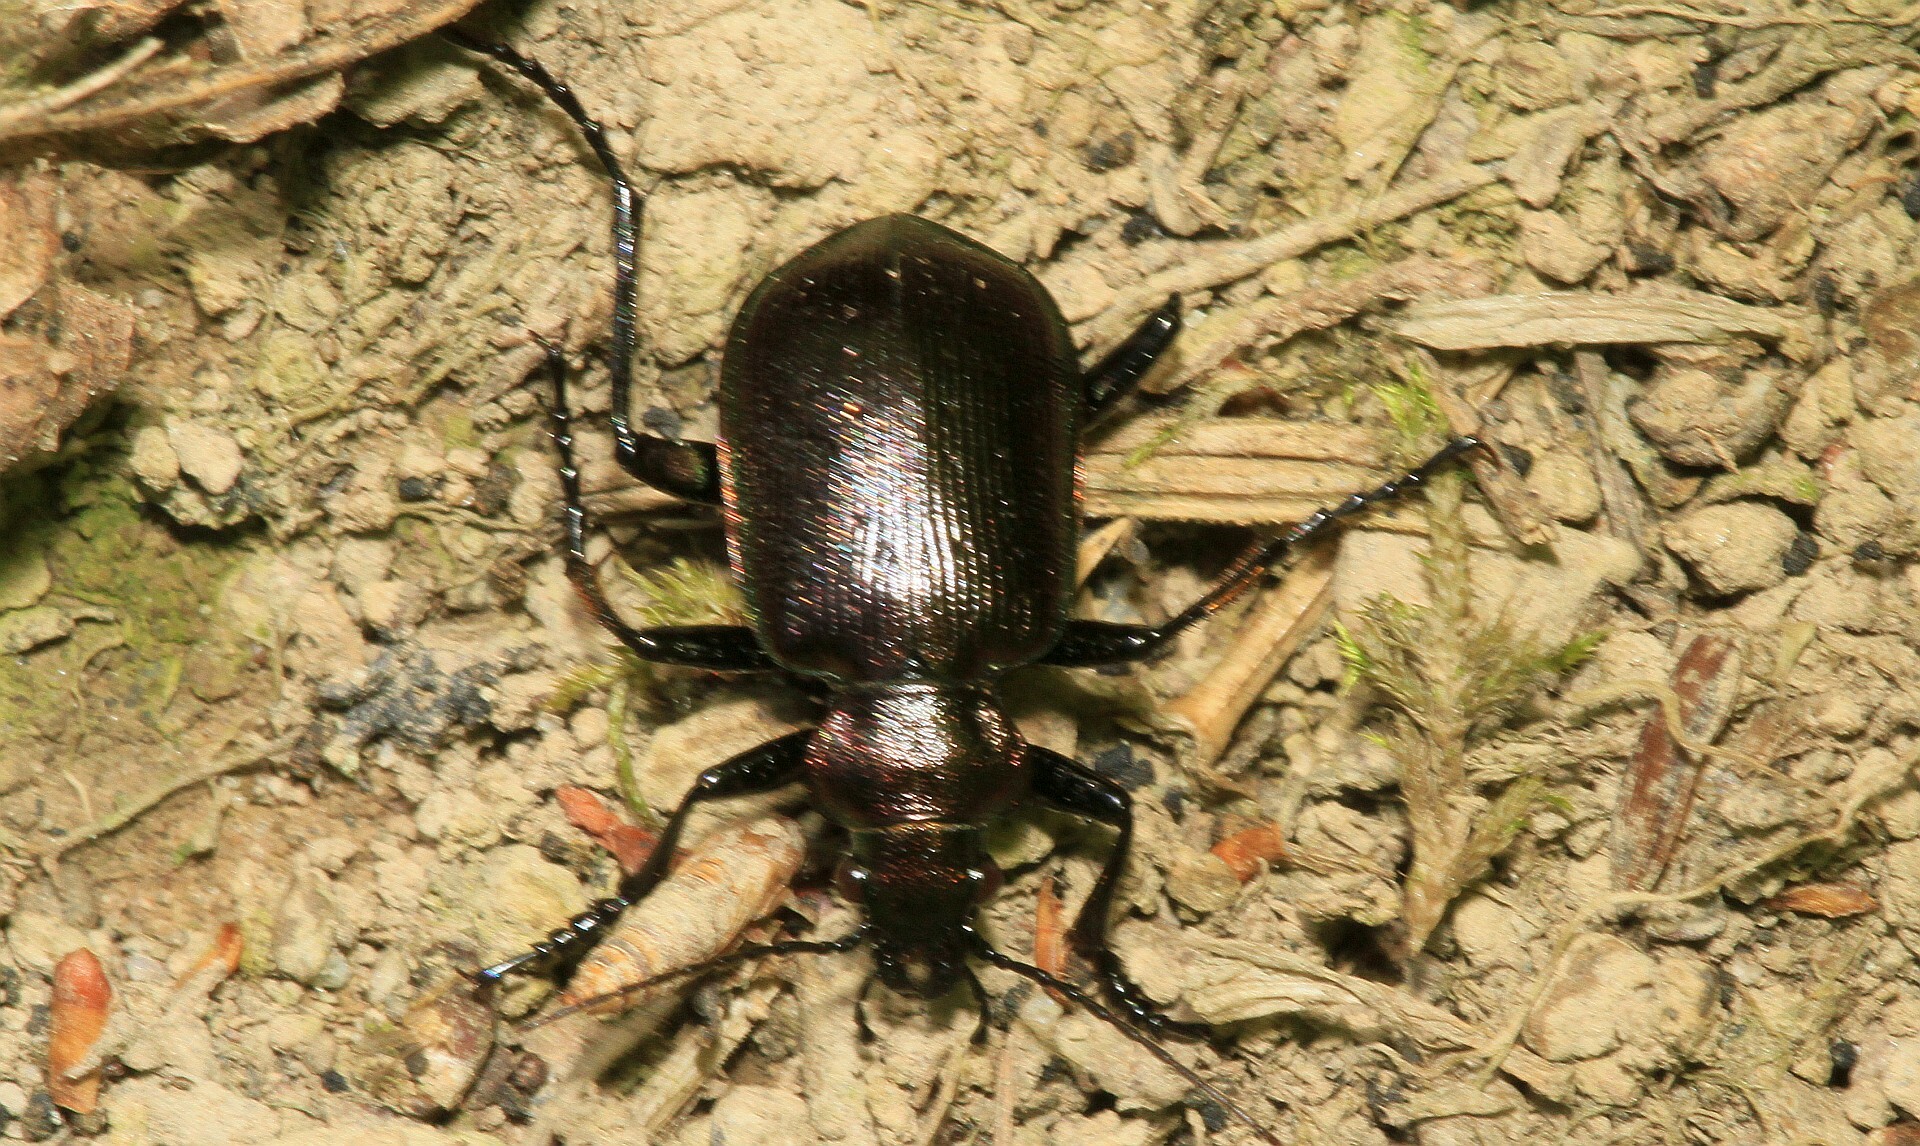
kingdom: Animalia
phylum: Arthropoda
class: Insecta
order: Coleoptera
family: Carabidae
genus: Calosoma
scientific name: Calosoma inquisitor
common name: Caterpillar-hunter
